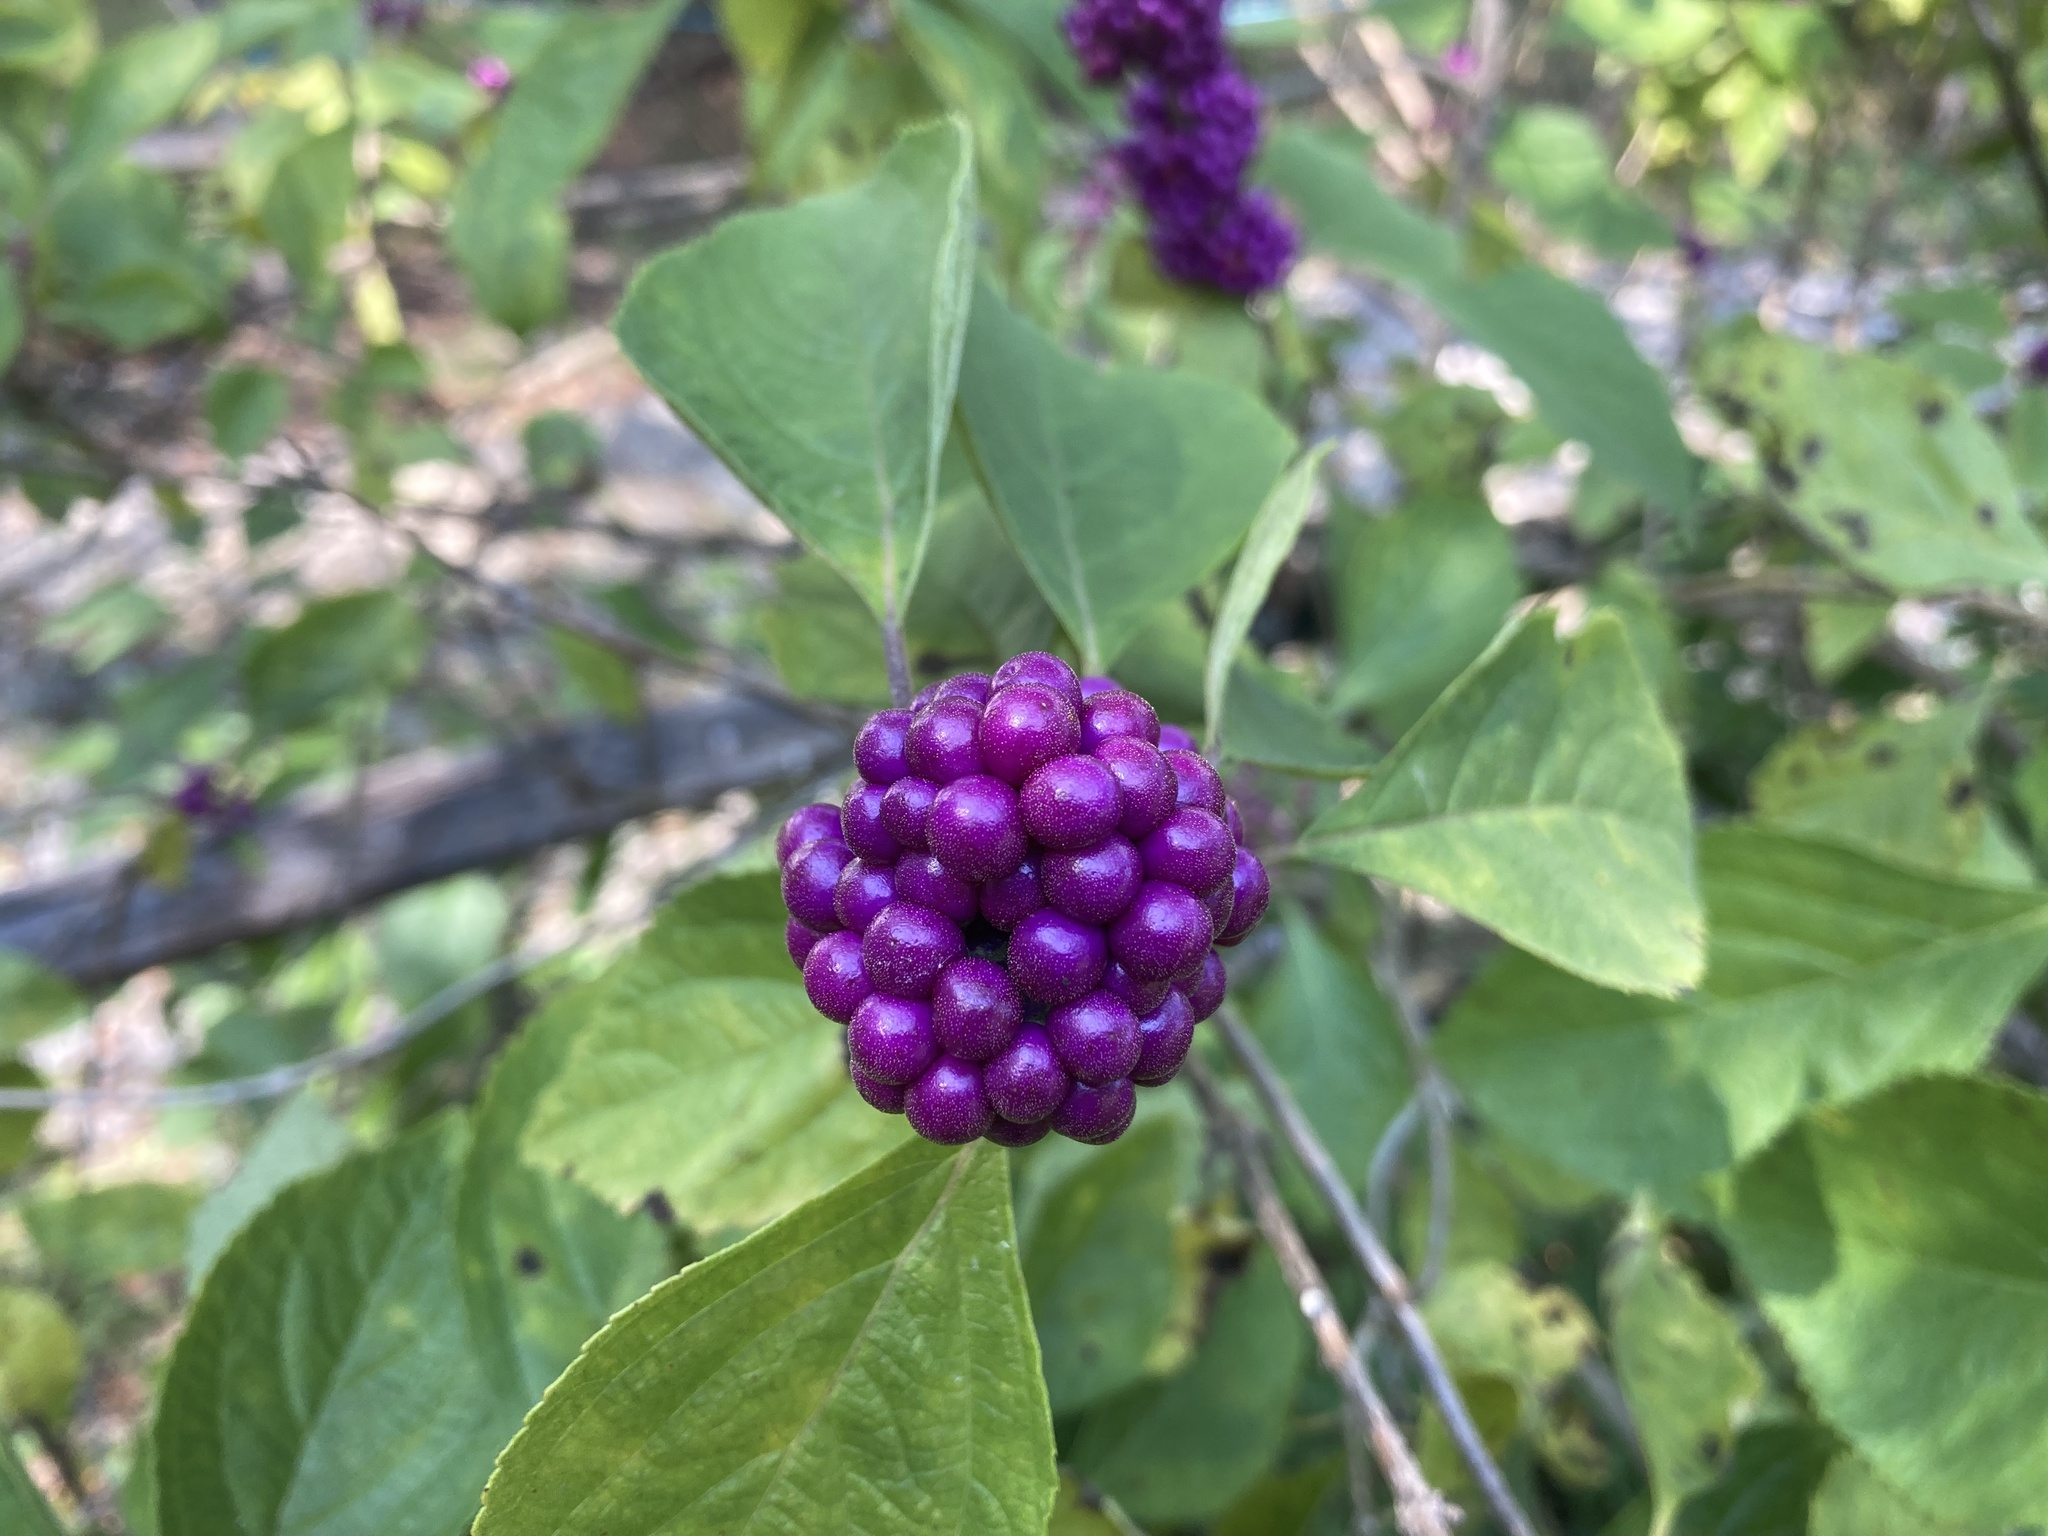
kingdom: Plantae
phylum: Tracheophyta
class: Magnoliopsida
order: Lamiales
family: Lamiaceae
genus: Callicarpa
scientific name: Callicarpa americana
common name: American beautyberry
